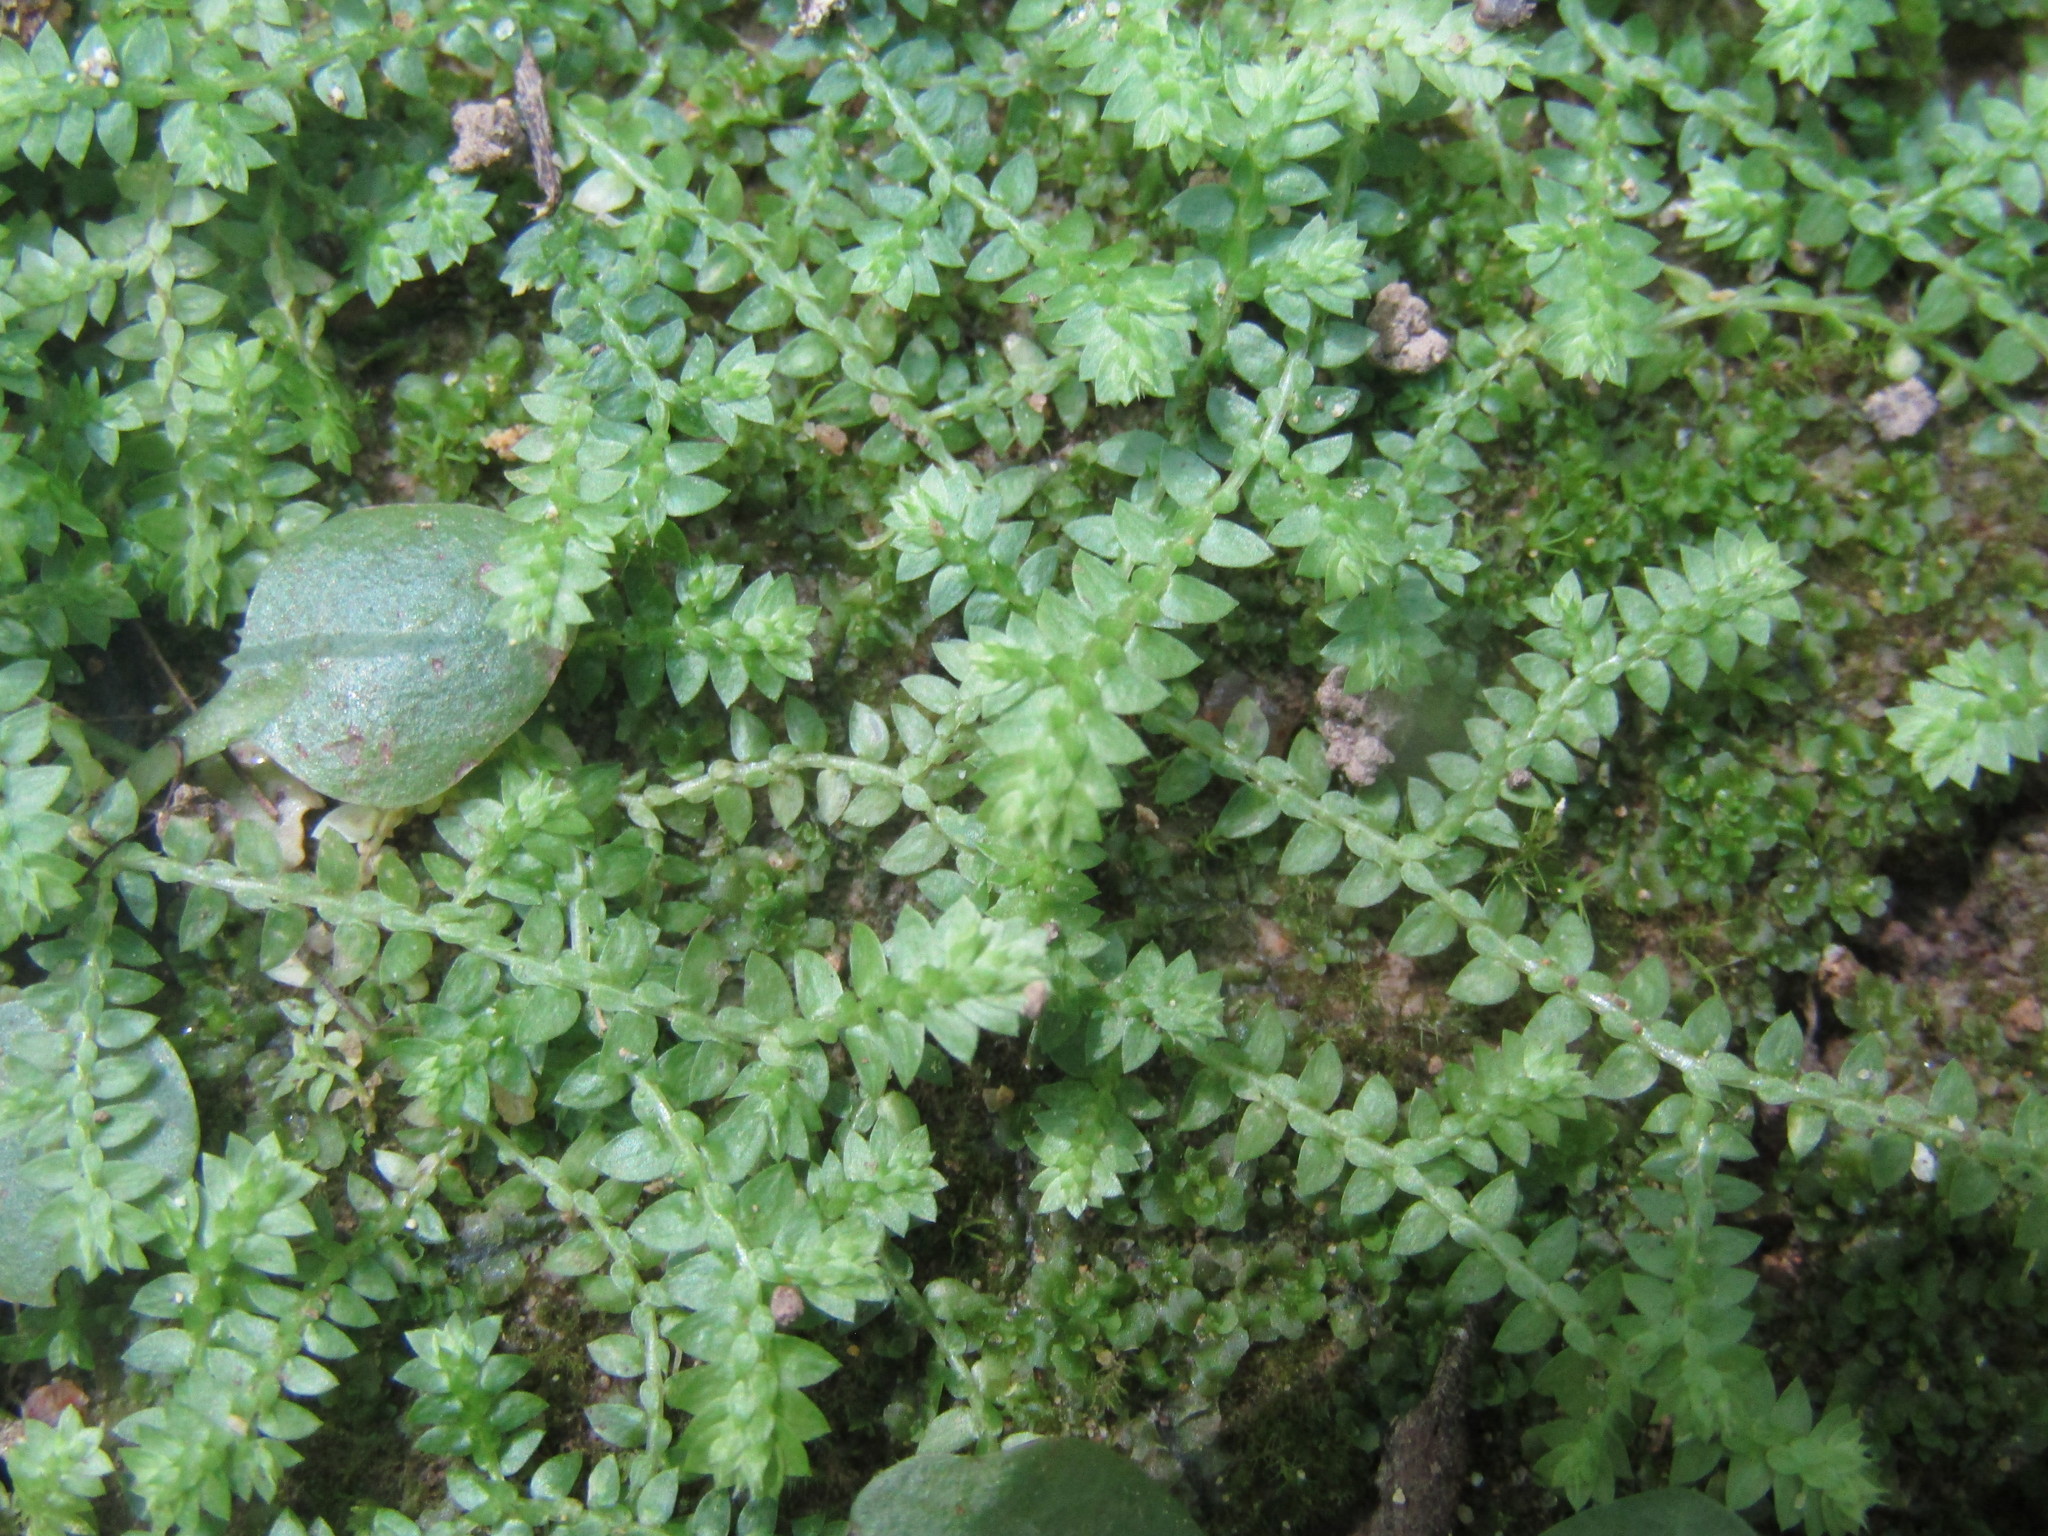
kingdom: Plantae
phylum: Tracheophyta
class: Lycopodiopsida
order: Selaginellales
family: Selaginellaceae
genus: Selaginella
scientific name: Selaginella apoda
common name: Creeping spikemoss
